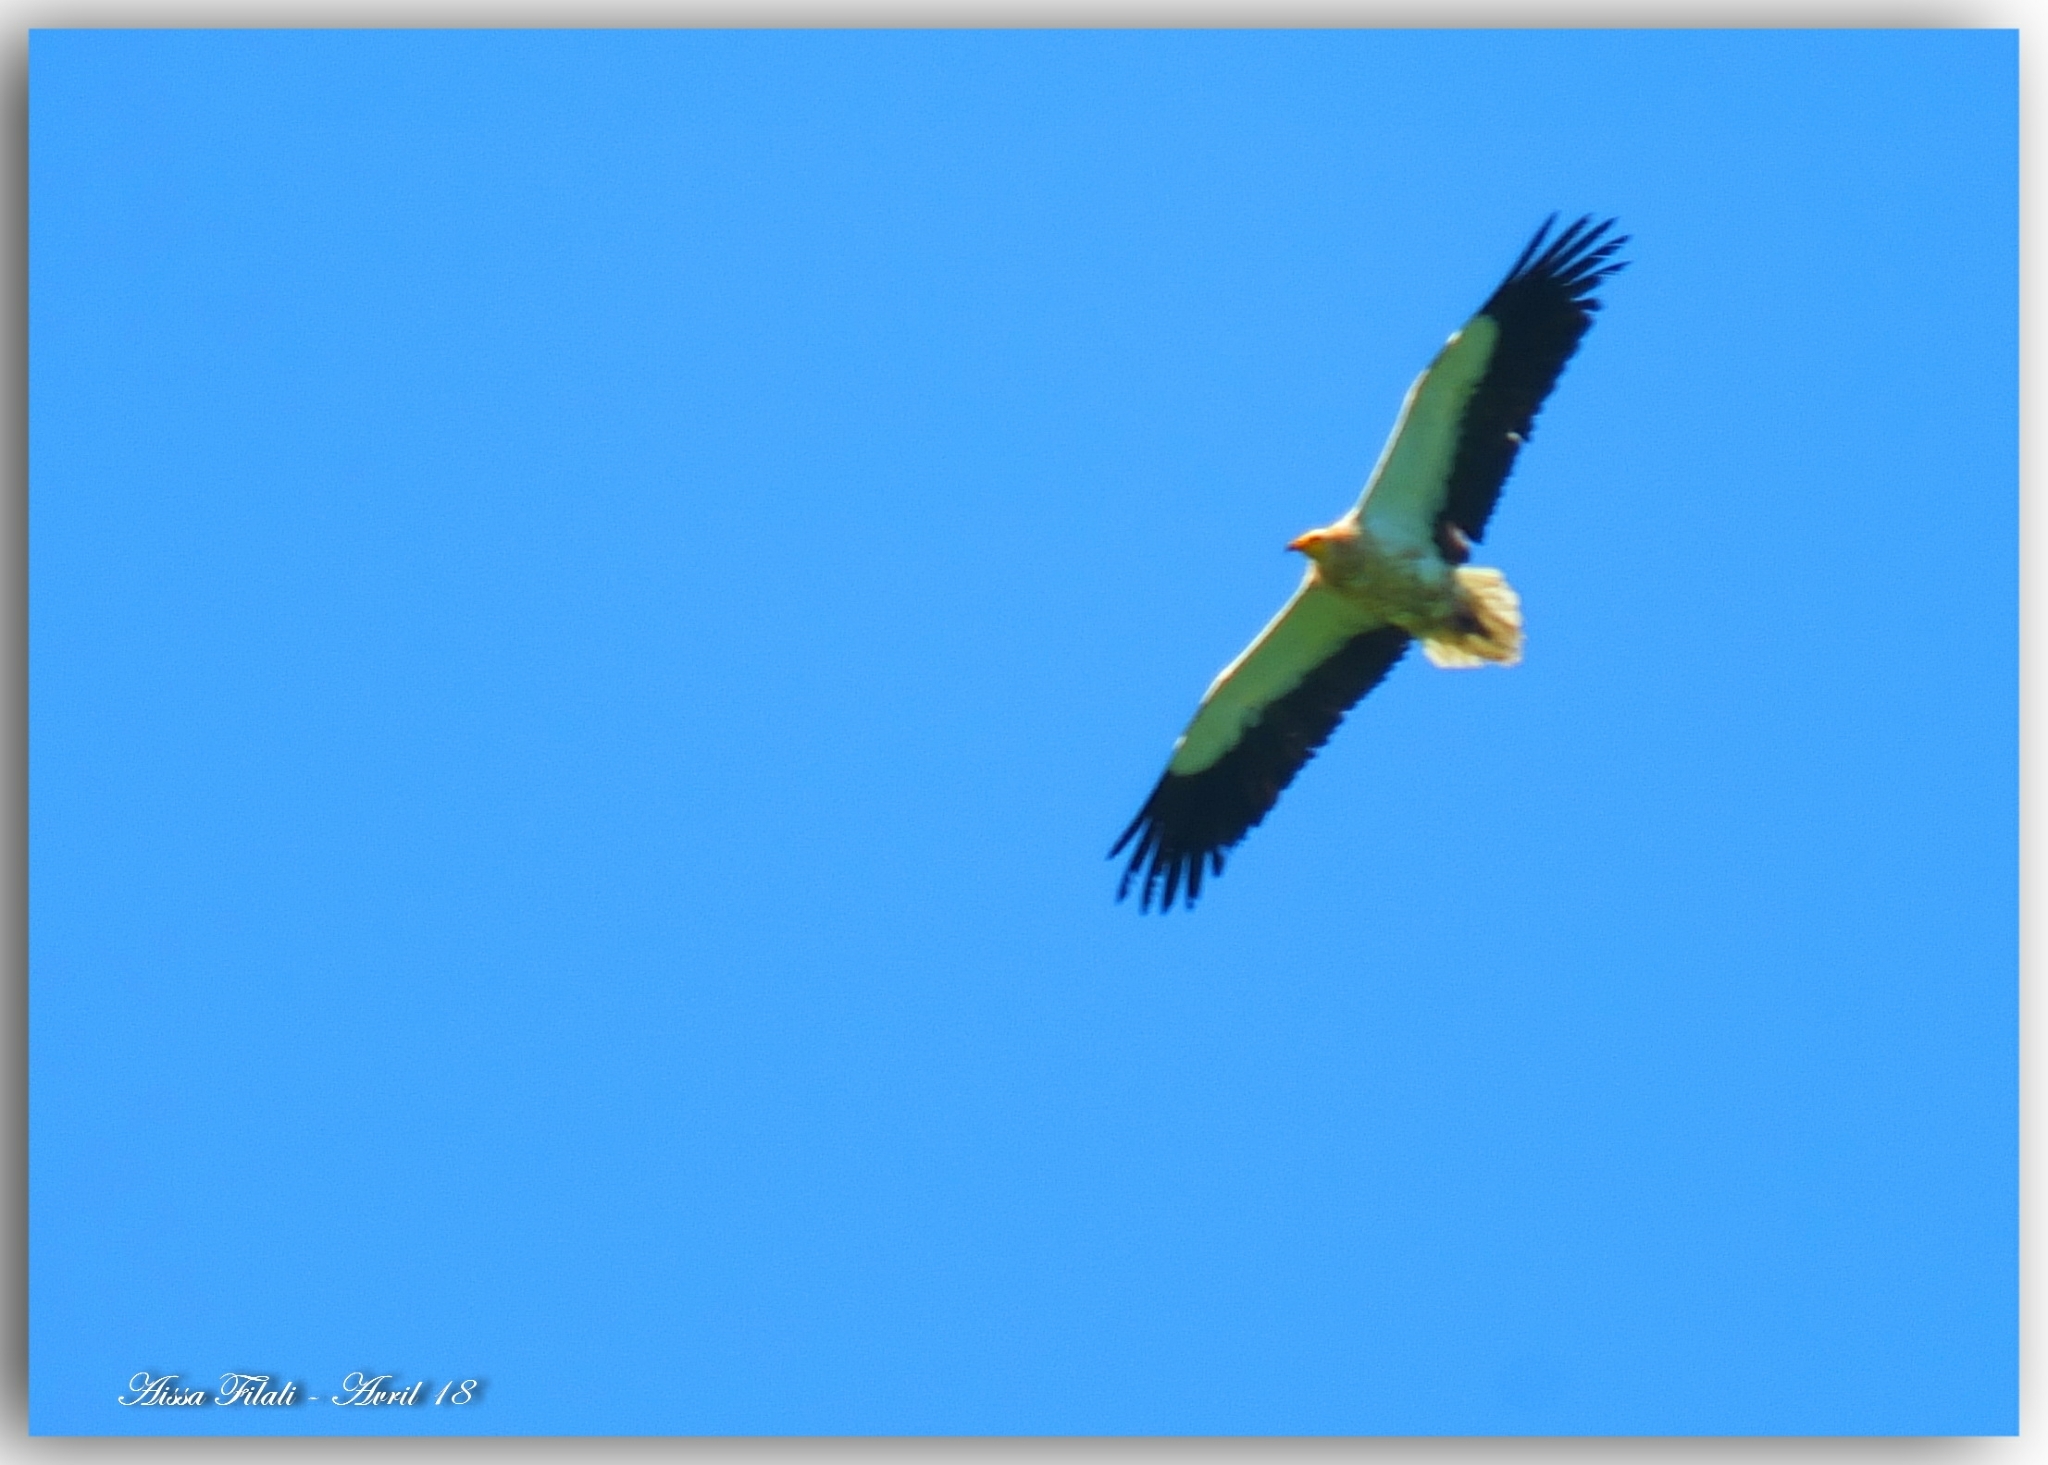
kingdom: Animalia
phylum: Chordata
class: Aves
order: Accipitriformes
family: Accipitridae
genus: Neophron
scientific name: Neophron percnopterus
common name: Egyptian vulture
